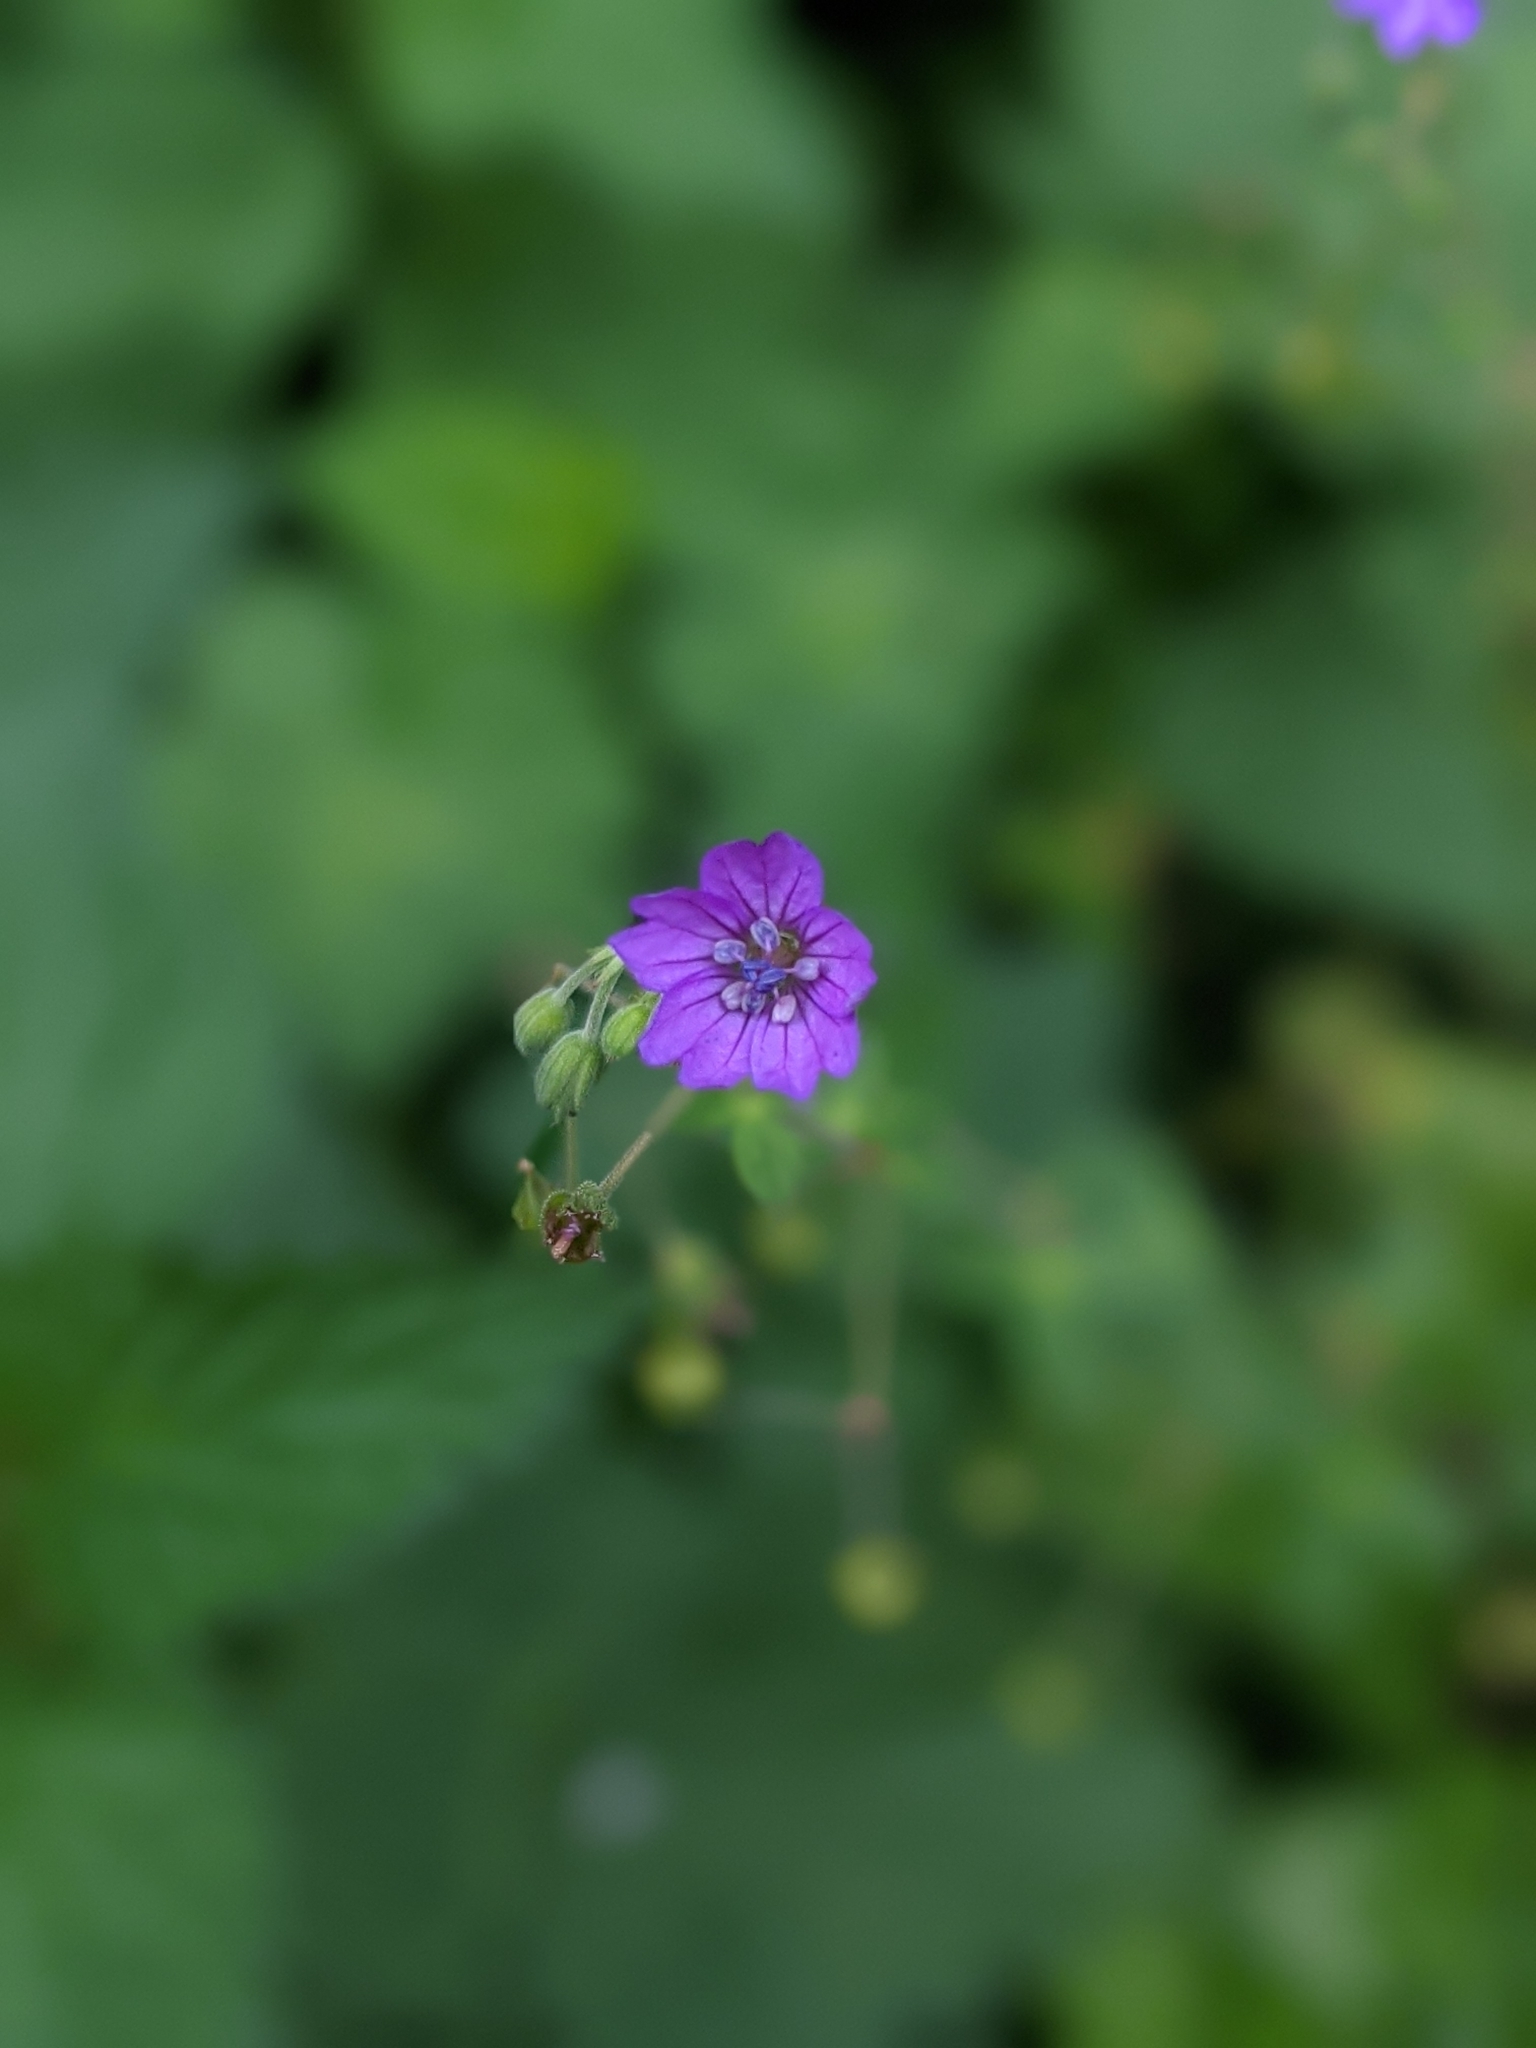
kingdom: Plantae
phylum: Tracheophyta
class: Magnoliopsida
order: Geraniales
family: Geraniaceae
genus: Geranium
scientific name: Geranium pyrenaicum
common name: Hedgerow crane's-bill
